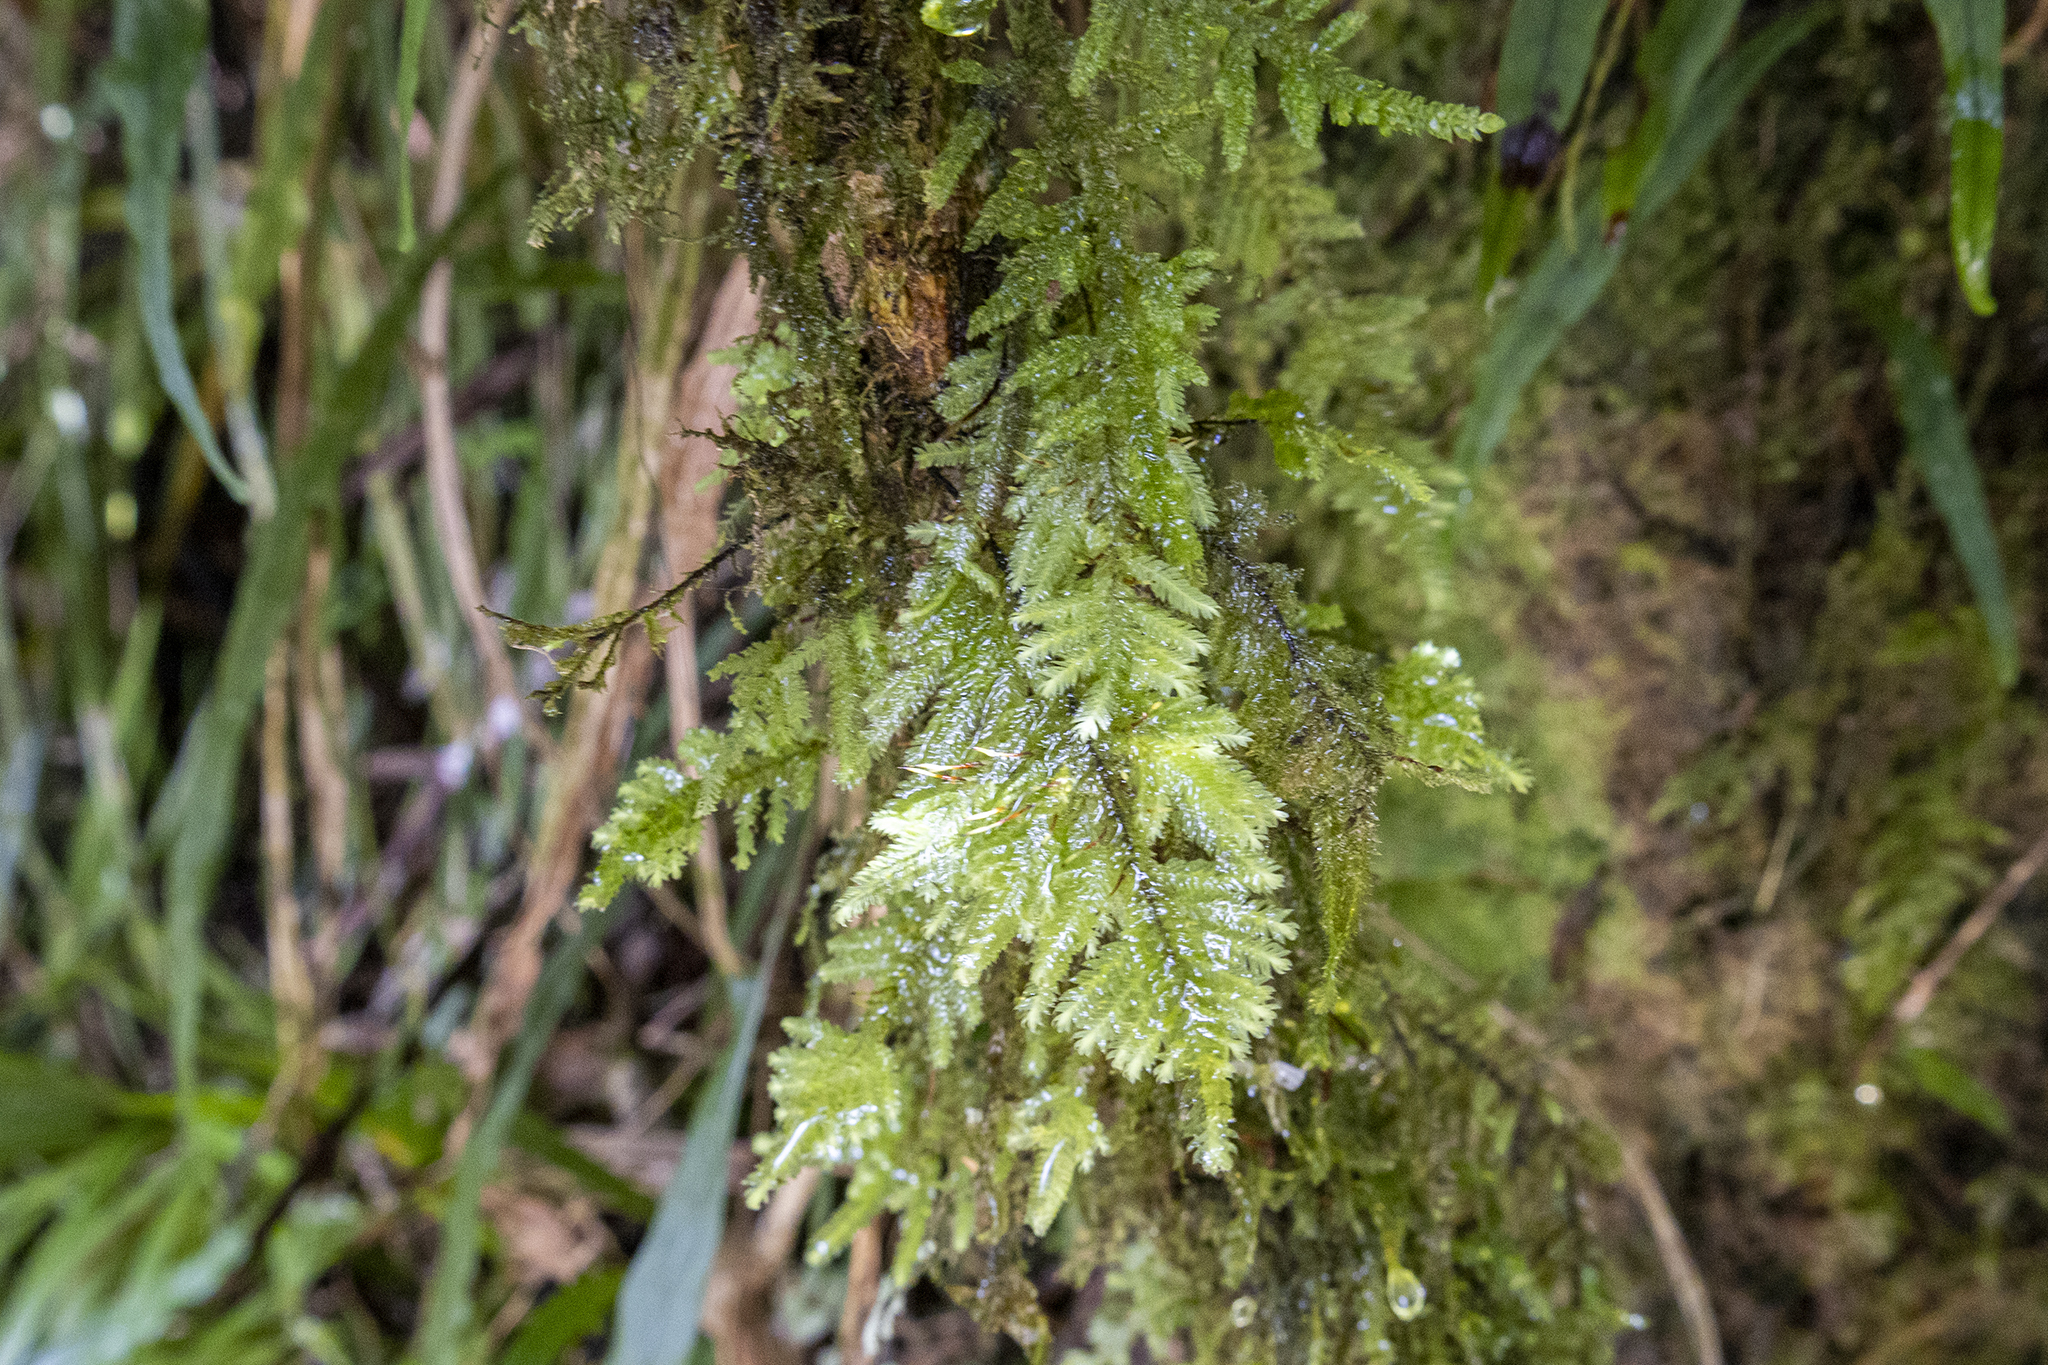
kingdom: Plantae
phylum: Bryophyta
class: Bryopsida
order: Hypopterygiales
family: Hypopterygiaceae
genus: Lopidium
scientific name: Lopidium concinnum
